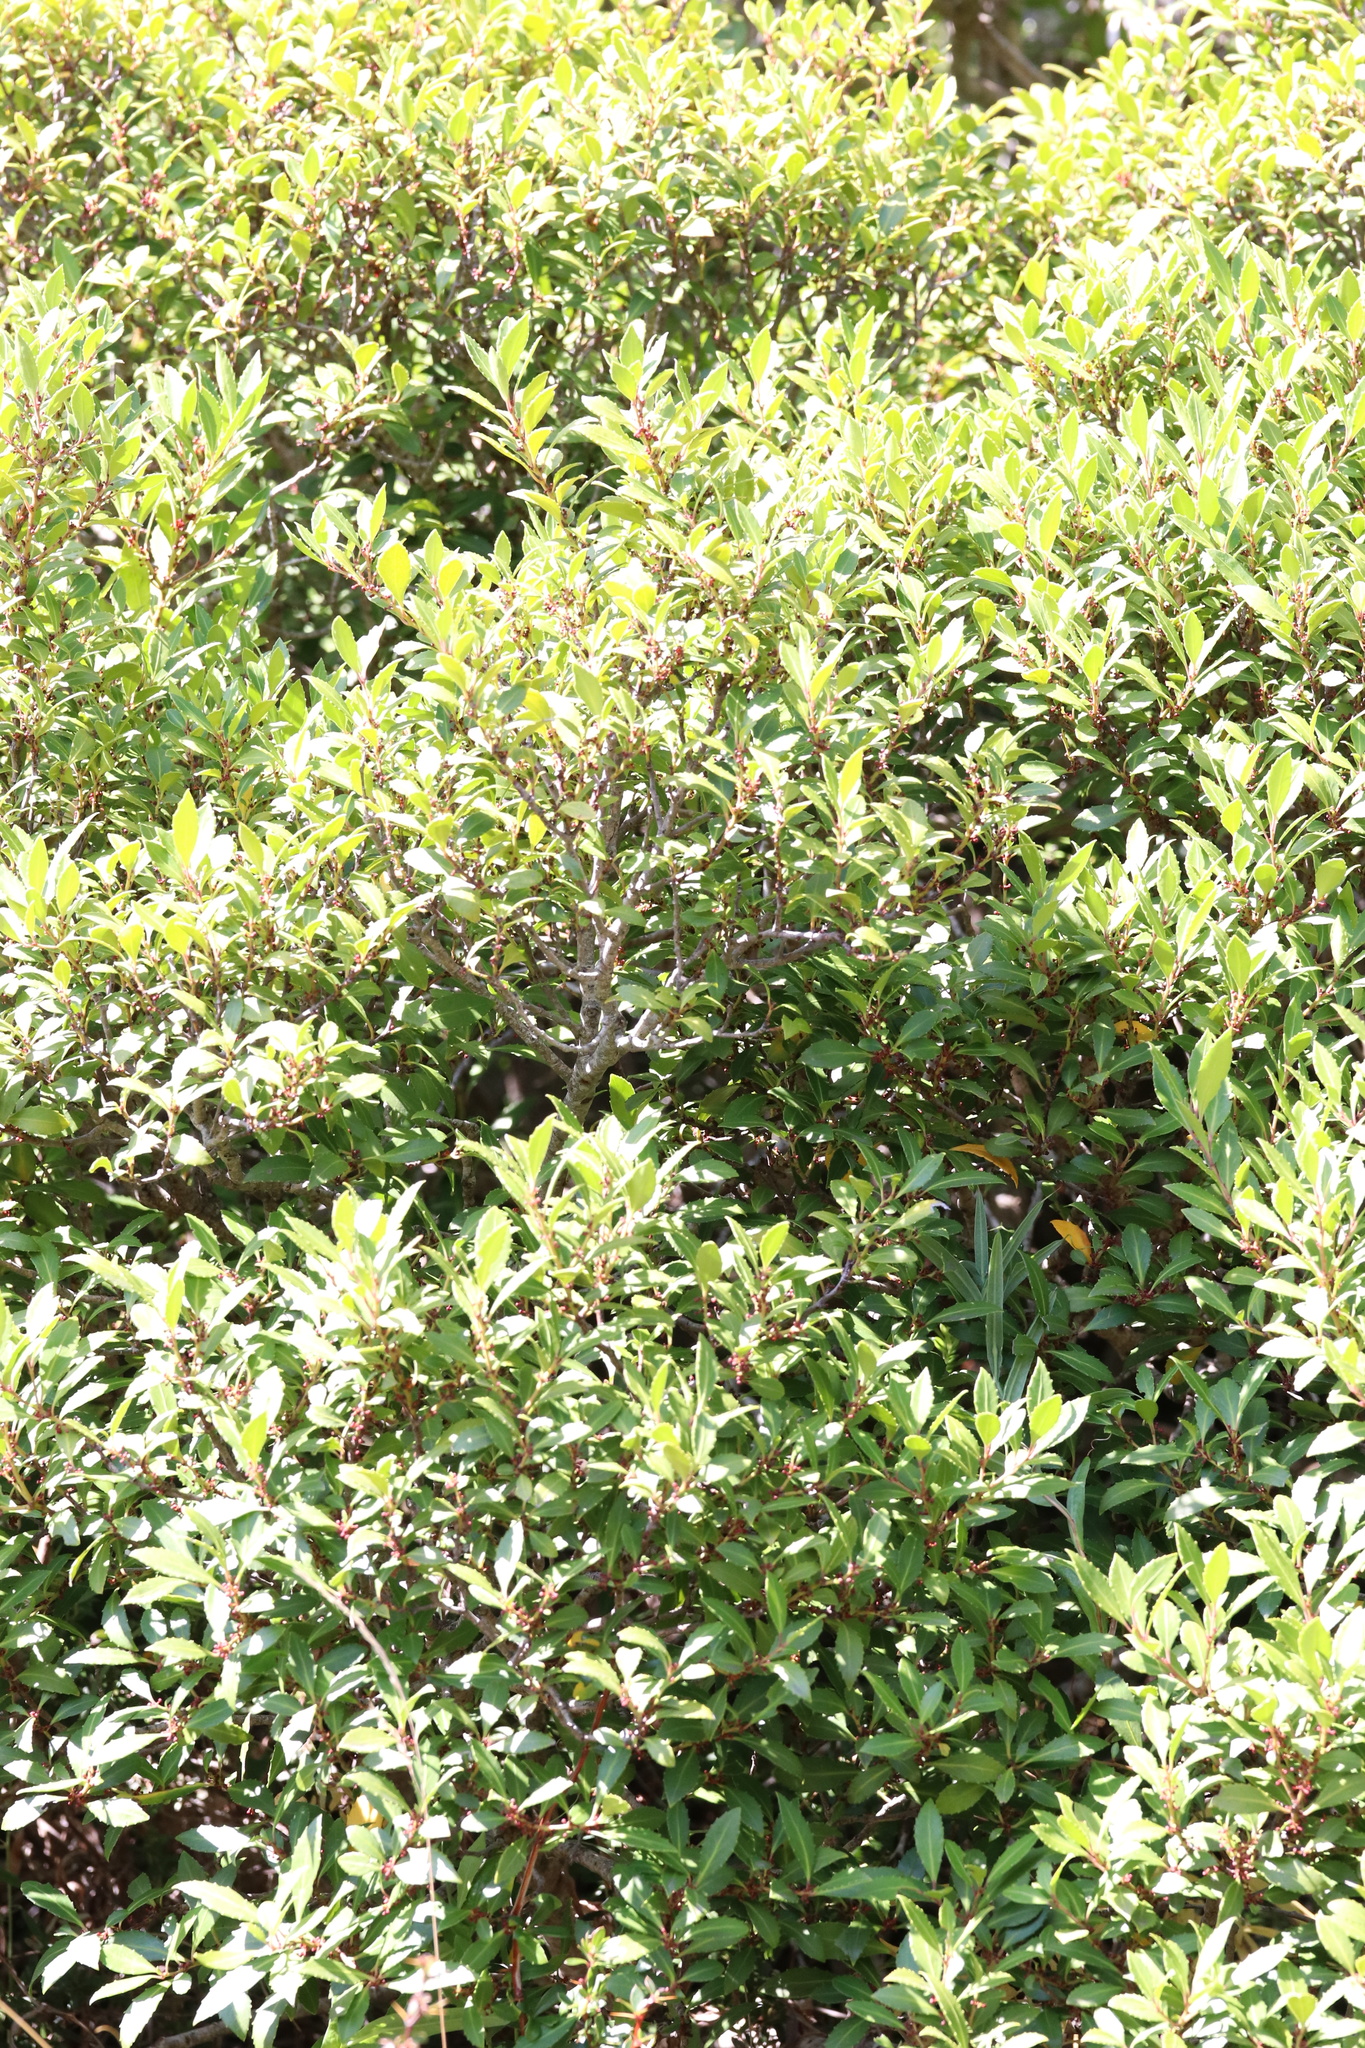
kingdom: Plantae
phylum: Tracheophyta
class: Magnoliopsida
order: Celastrales
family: Celastraceae
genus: Maytenus
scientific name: Maytenus magellanica
